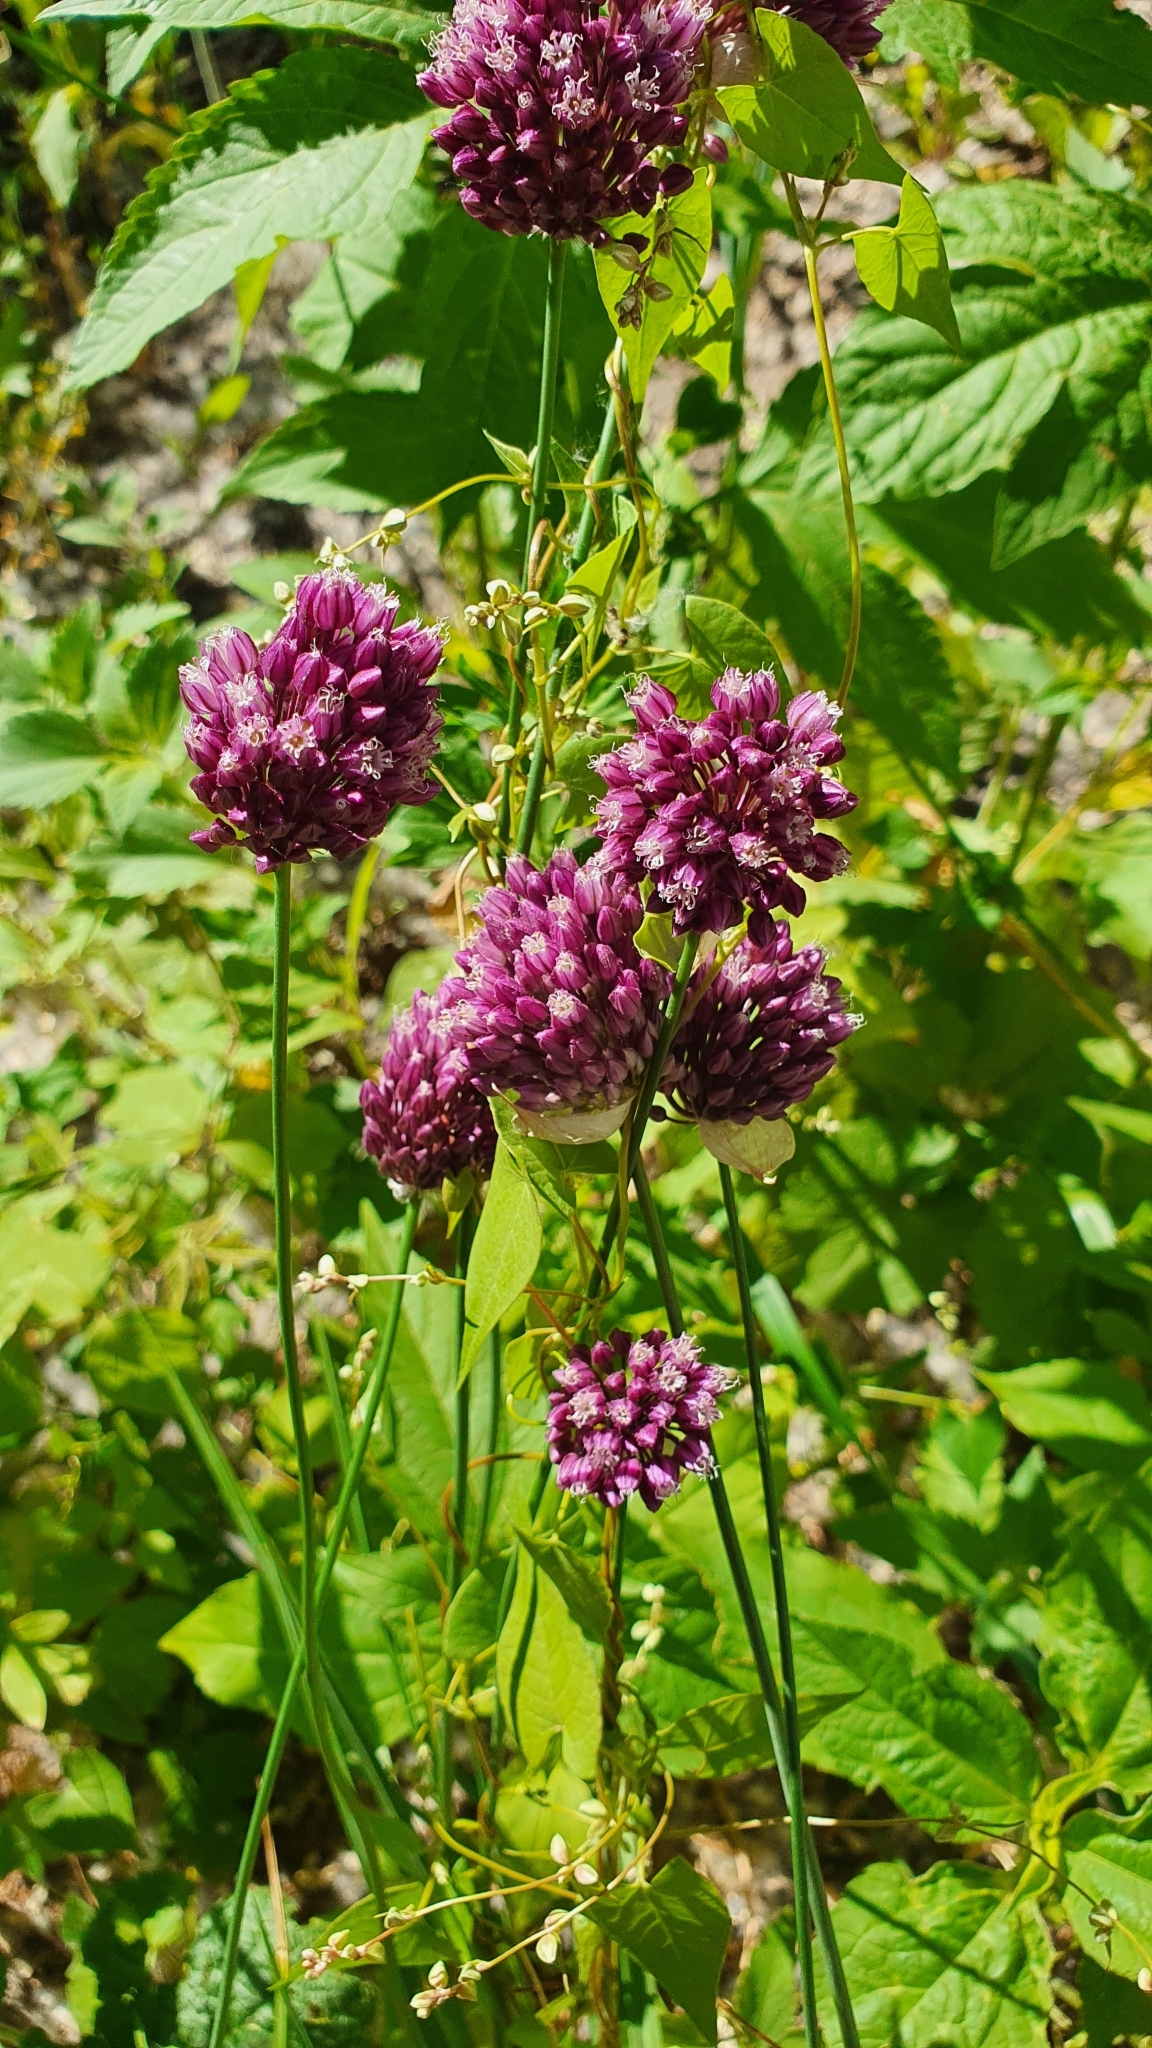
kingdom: Plantae
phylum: Tracheophyta
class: Liliopsida
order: Asparagales
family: Amaryllidaceae
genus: Allium
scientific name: Allium rotundum
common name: Sand leek
